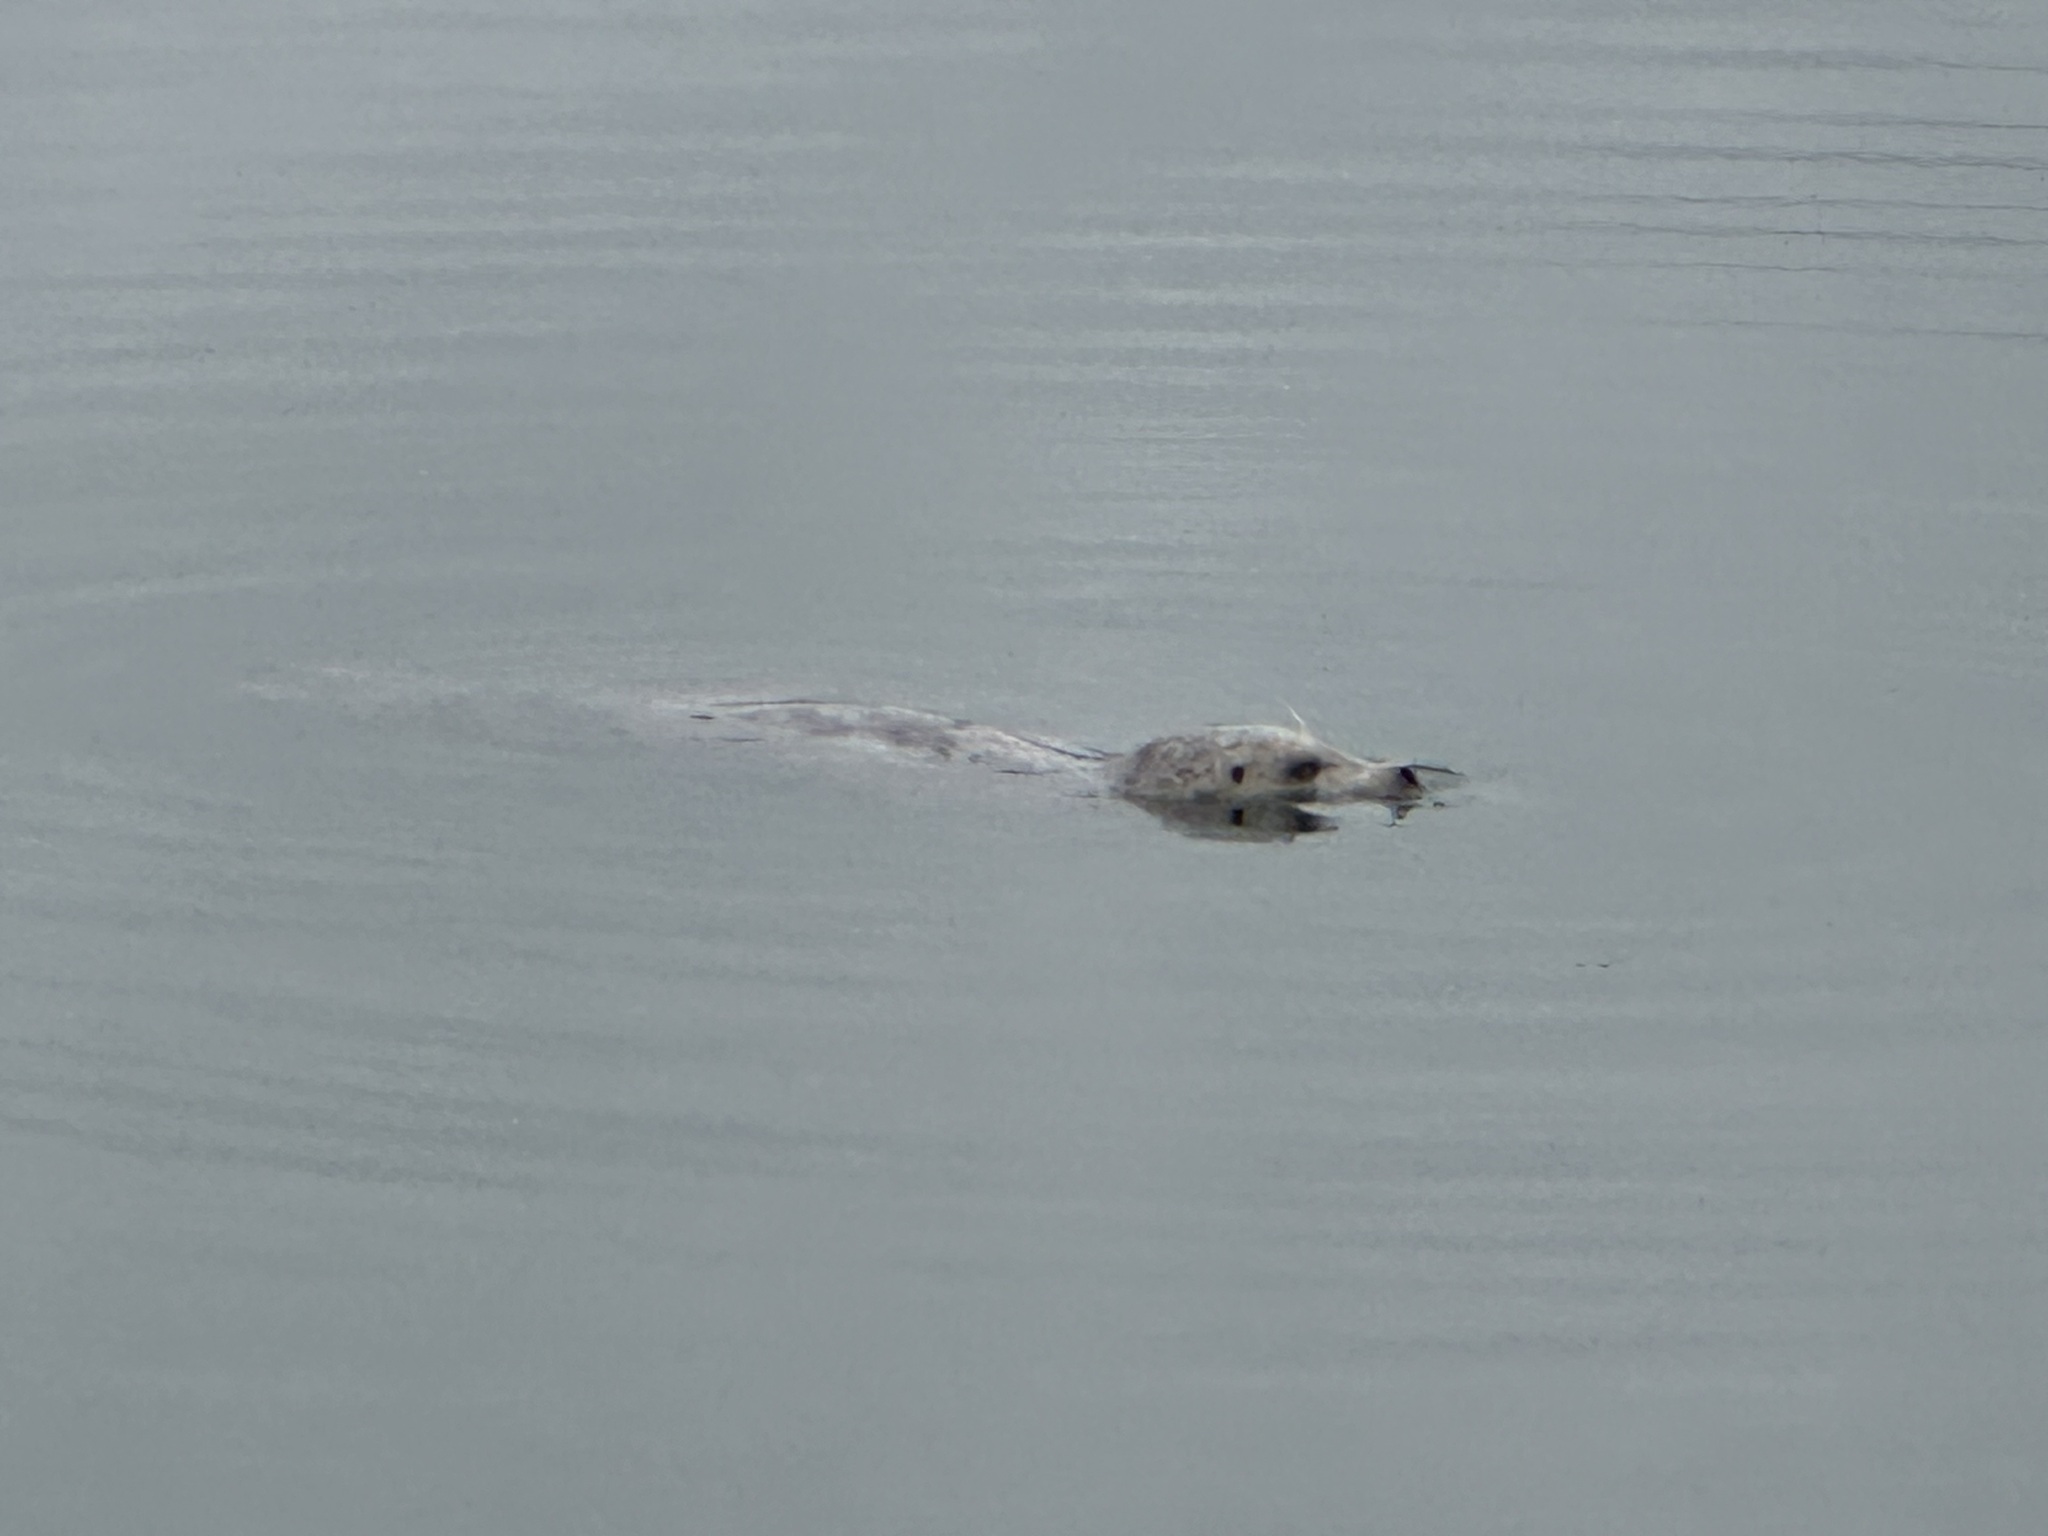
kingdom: Animalia
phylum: Chordata
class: Mammalia
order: Carnivora
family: Phocidae
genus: Phoca
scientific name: Phoca vitulina
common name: Harbor seal
